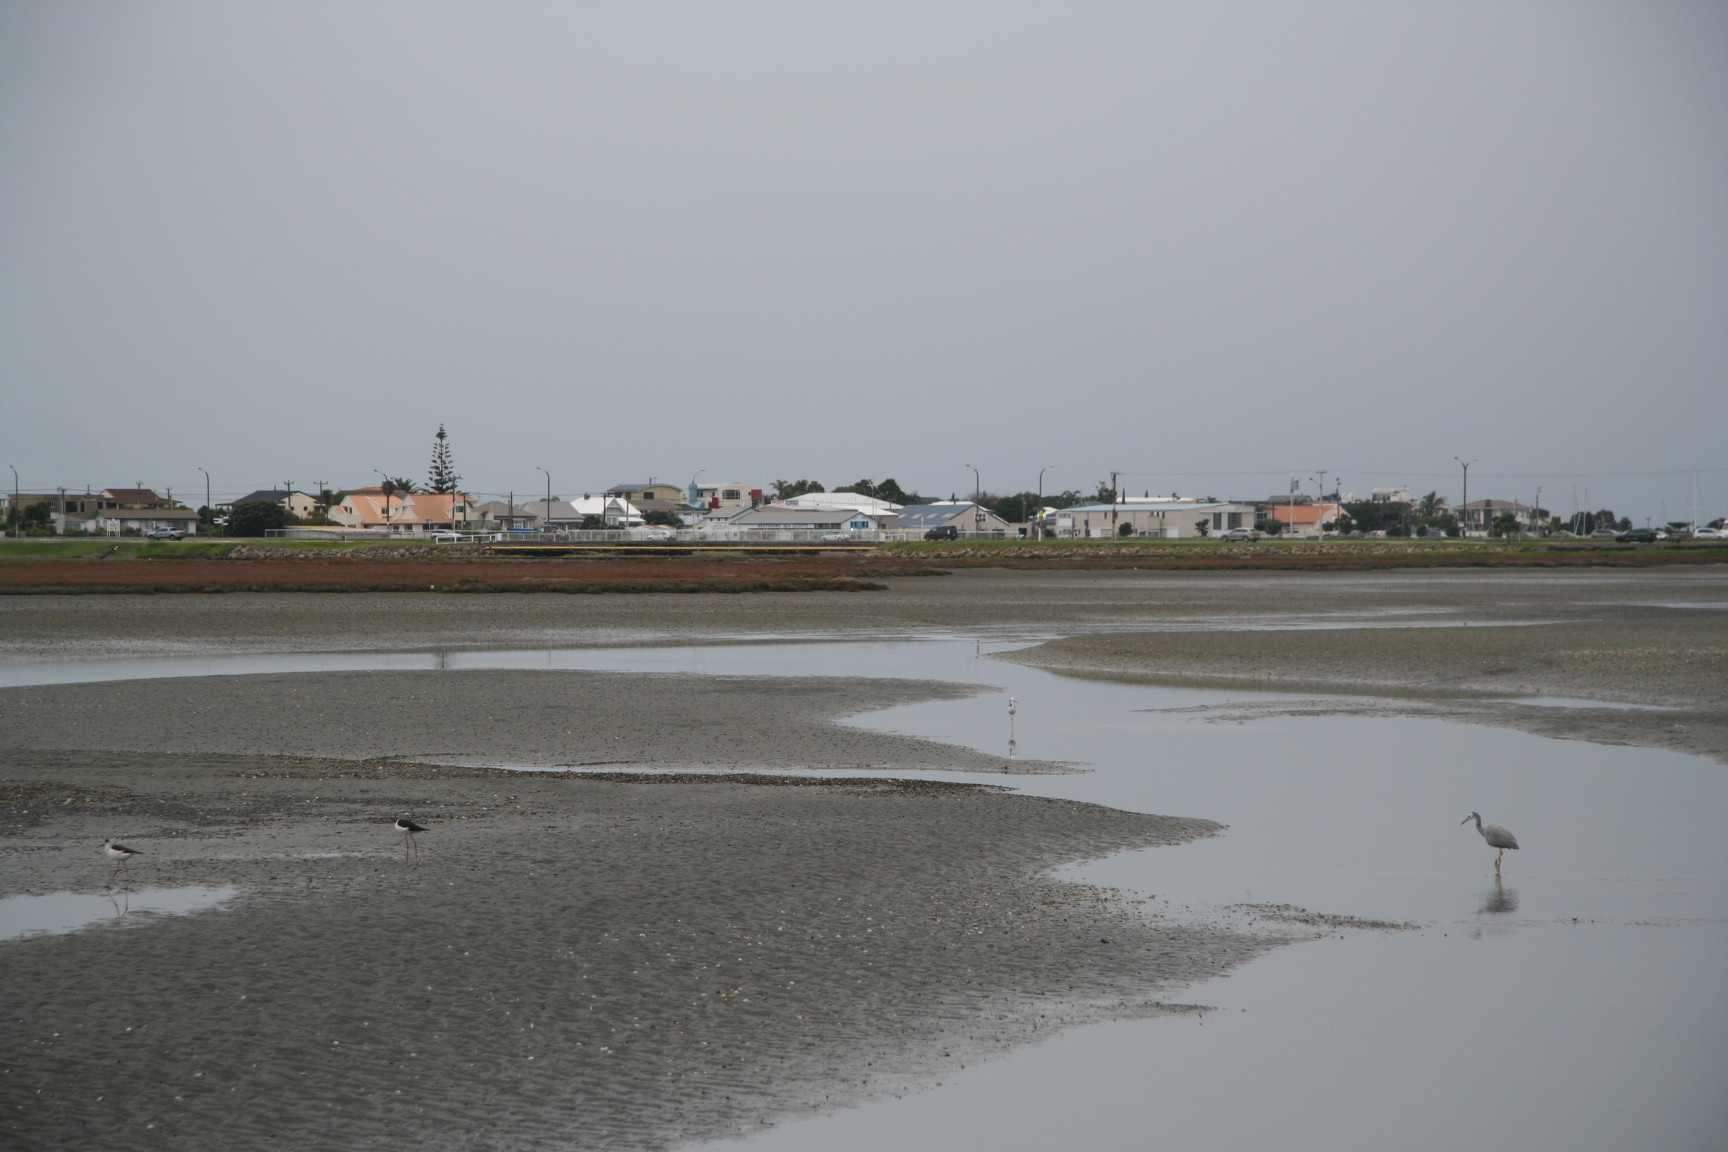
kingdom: Animalia
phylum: Chordata
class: Aves
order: Pelecaniformes
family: Ardeidae
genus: Egretta
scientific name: Egretta novaehollandiae
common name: White-faced heron
